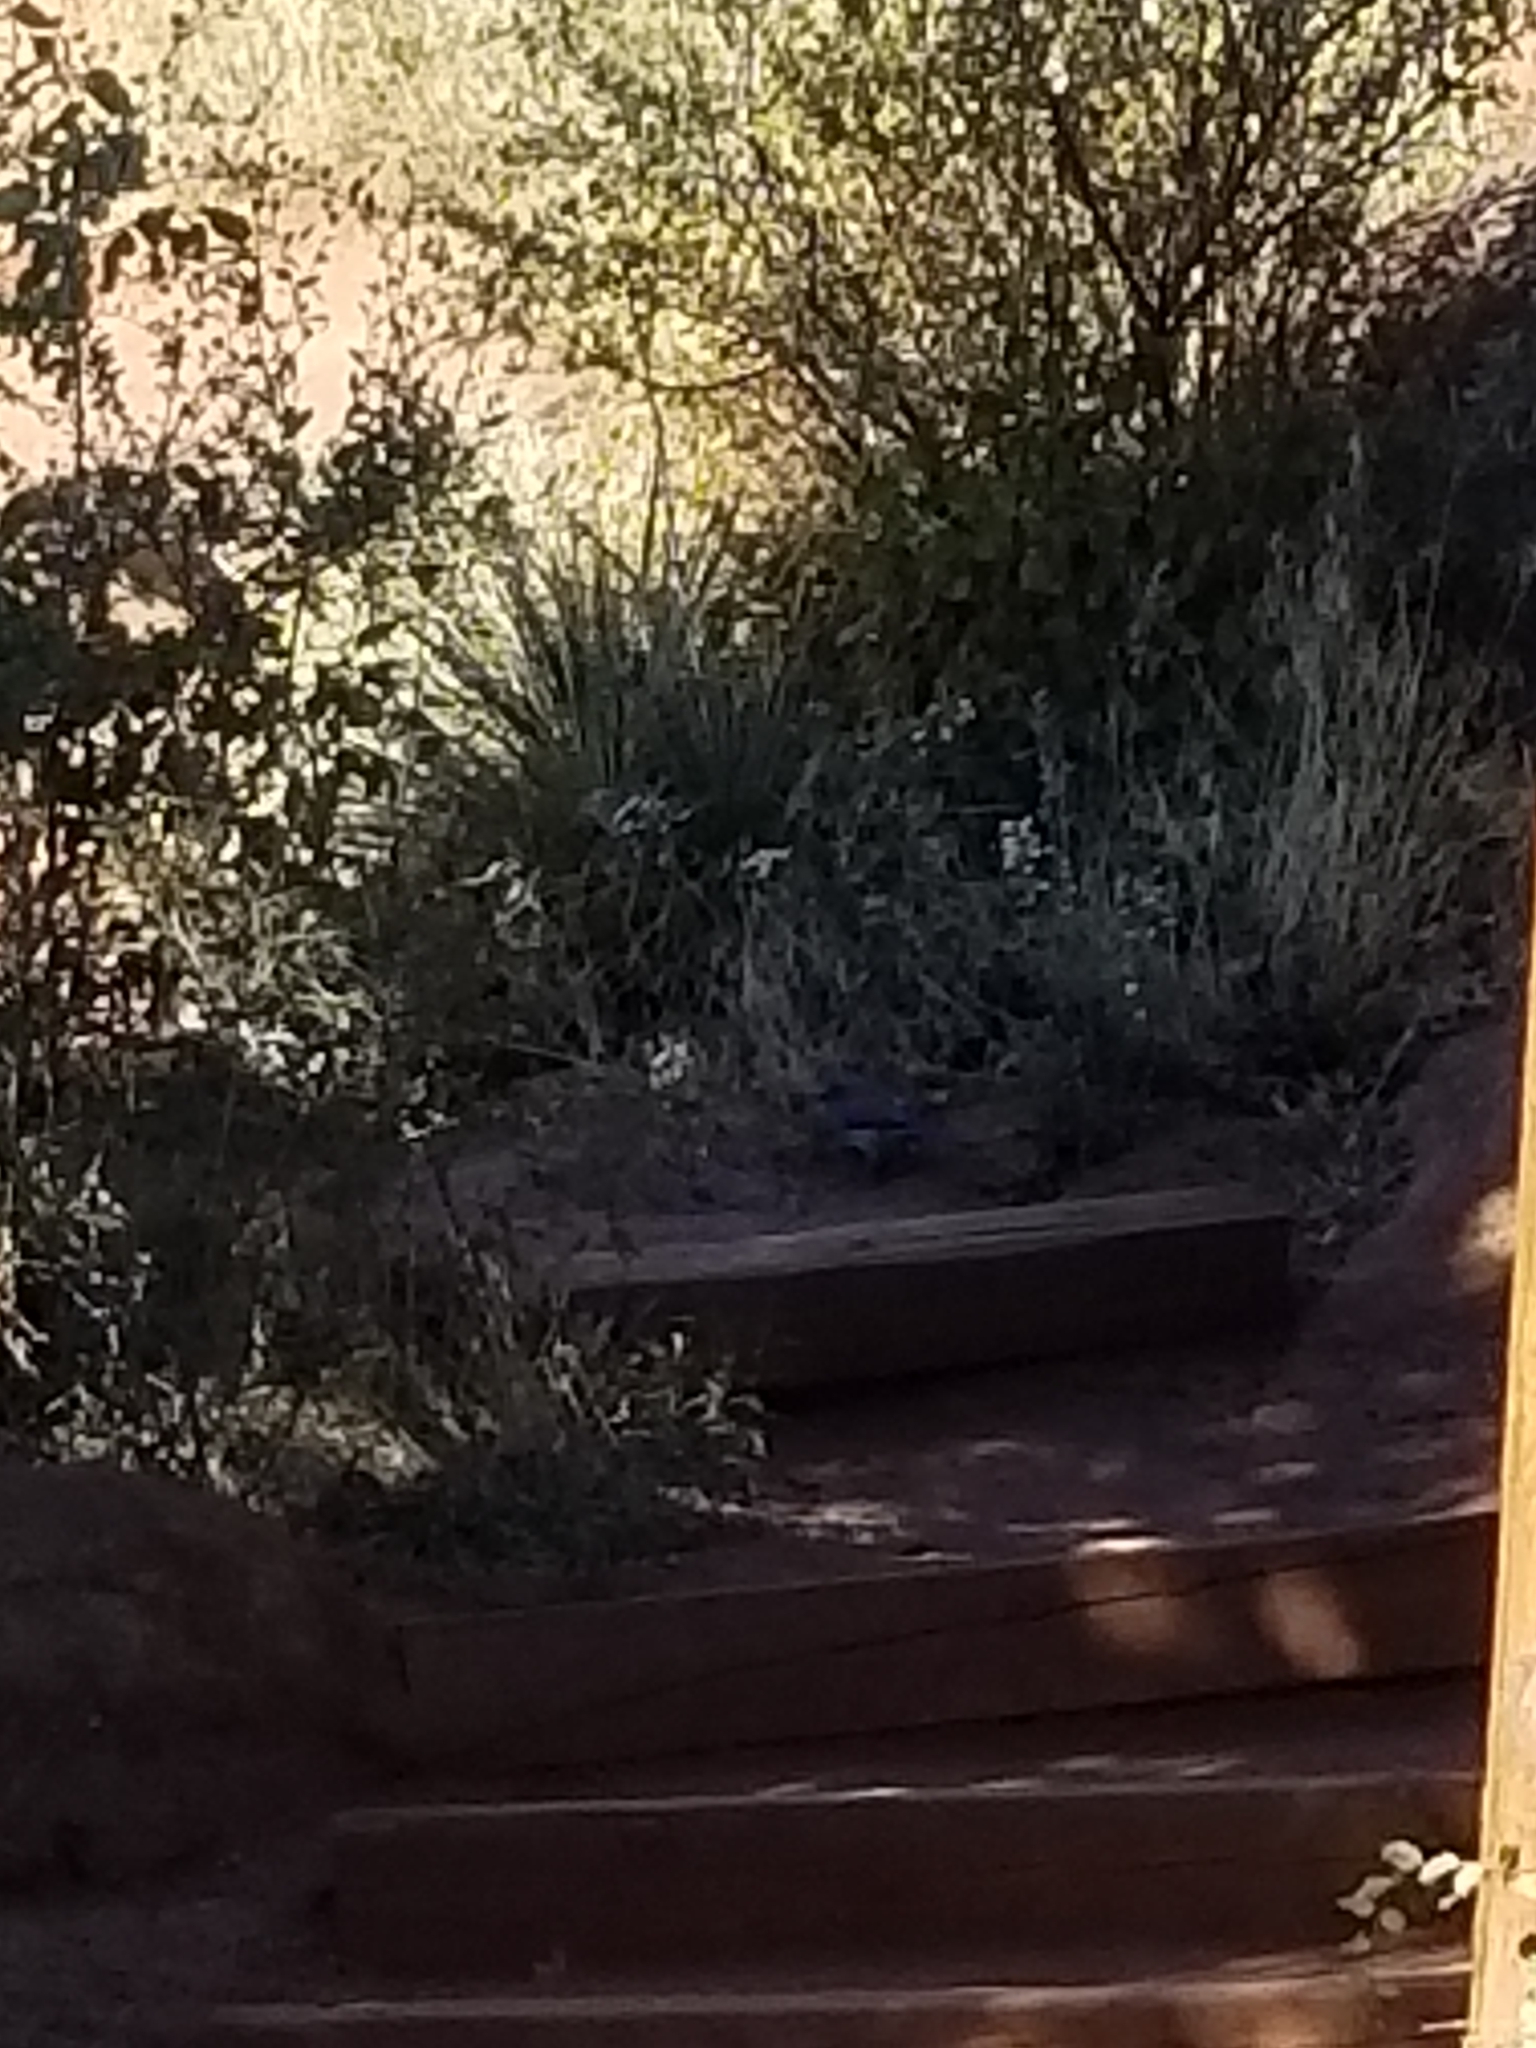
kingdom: Animalia
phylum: Chordata
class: Aves
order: Passeriformes
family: Corvidae
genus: Aphelocoma
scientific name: Aphelocoma woodhouseii
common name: Woodhouse's scrub-jay
